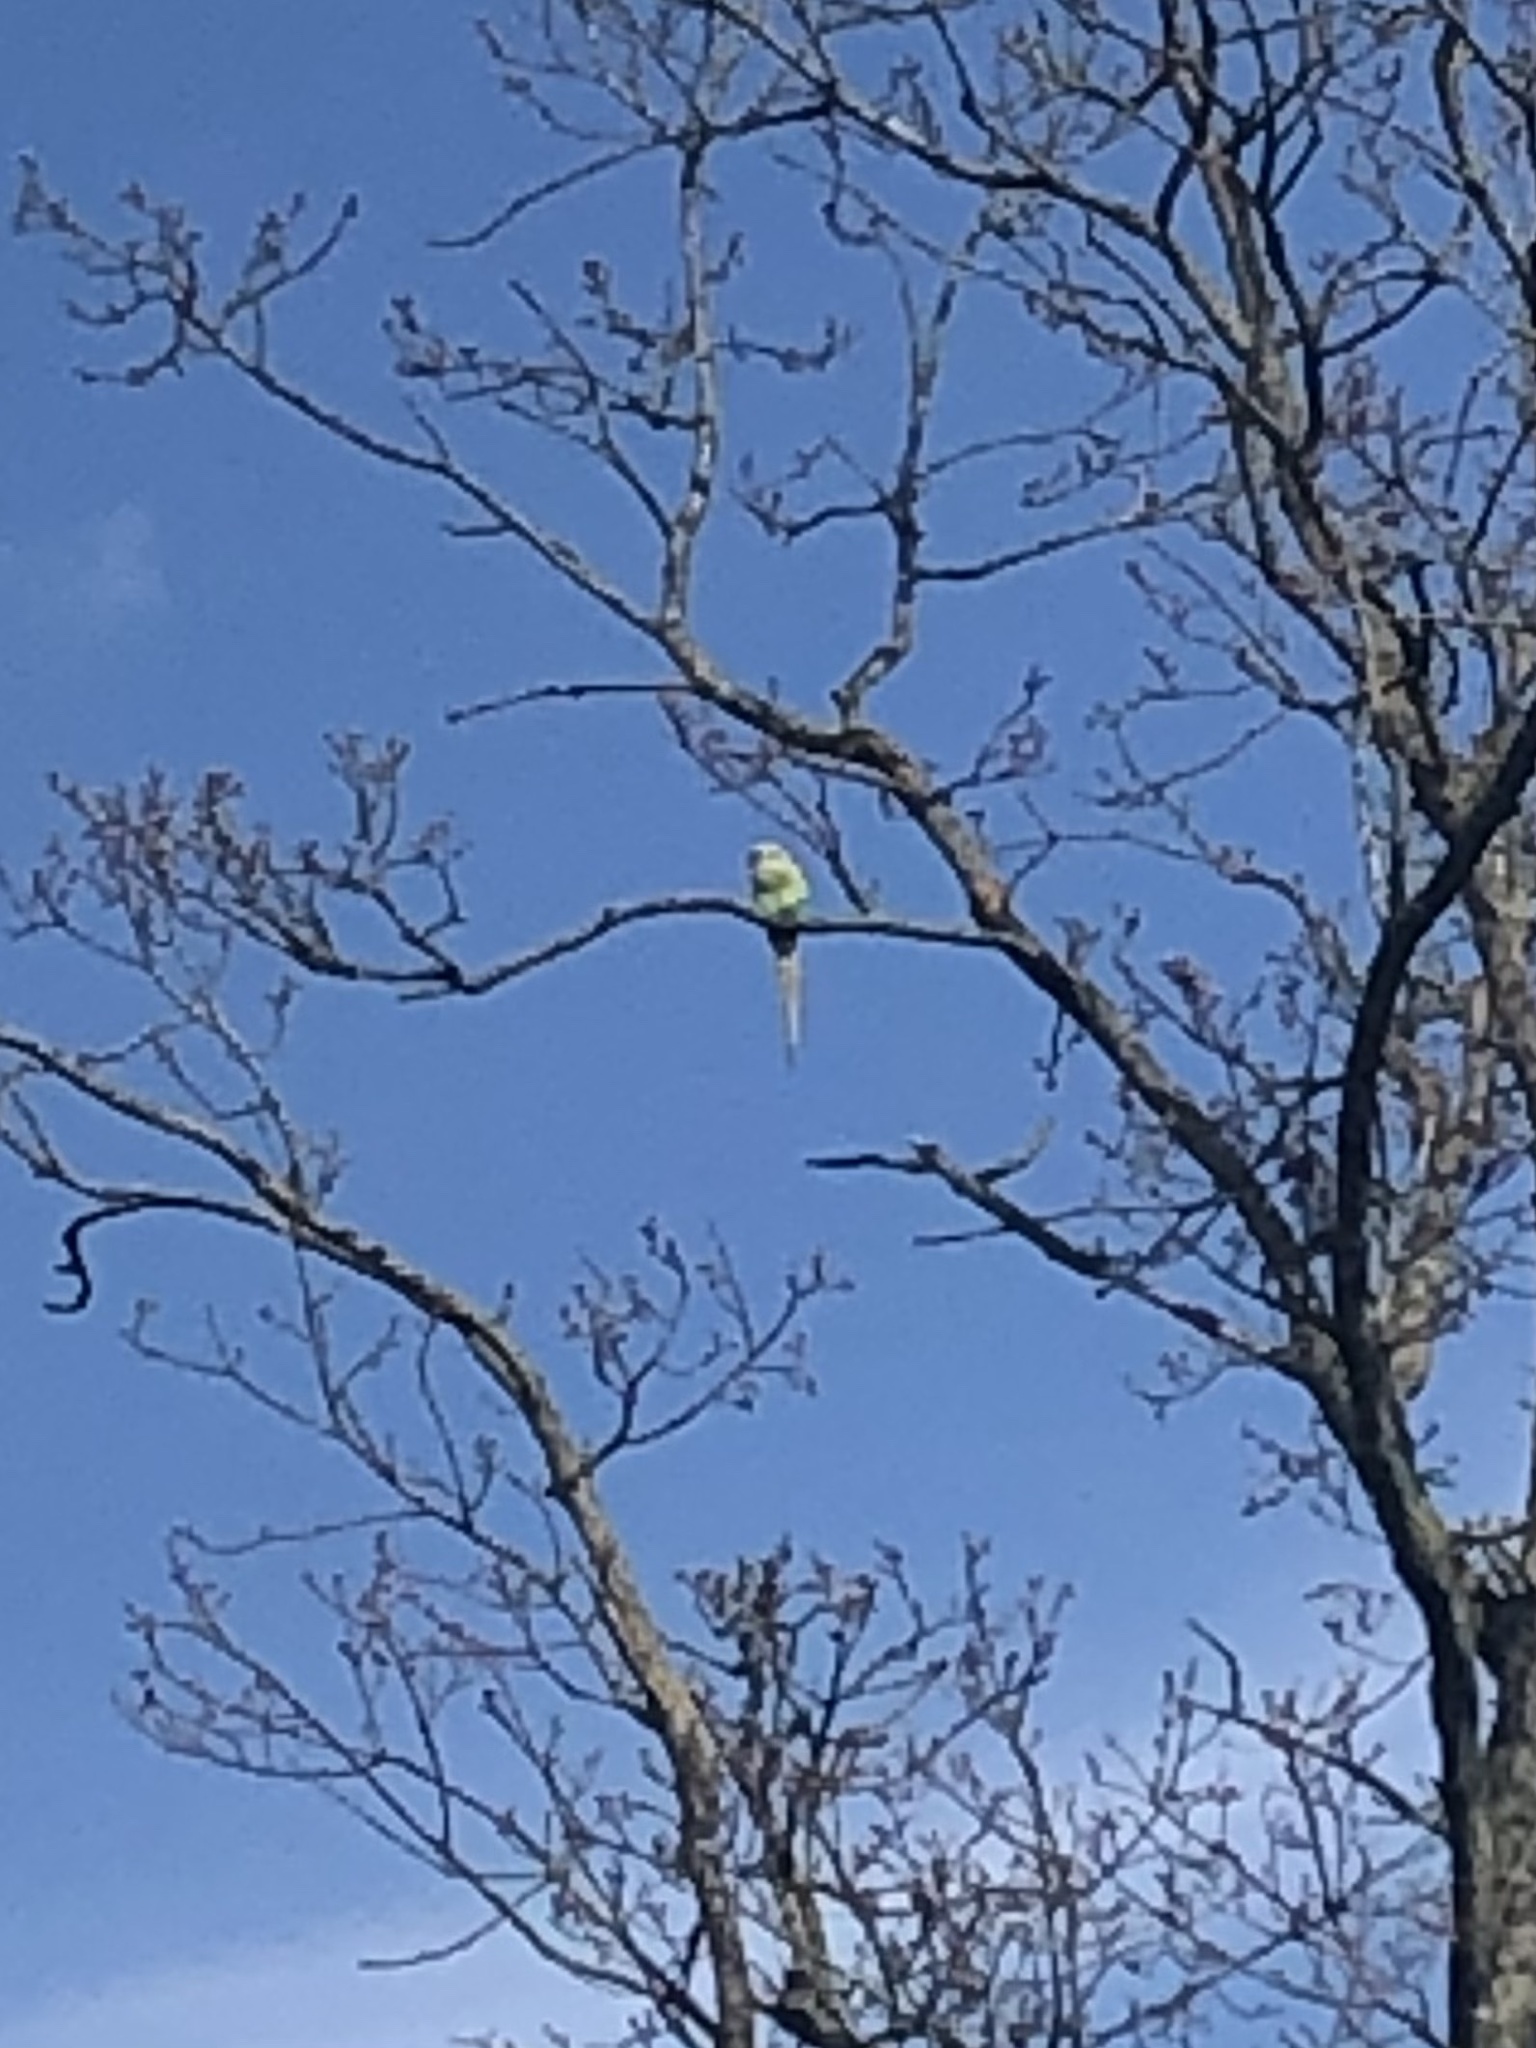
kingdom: Animalia
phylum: Chordata
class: Aves
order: Psittaciformes
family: Psittacidae
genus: Psittacula
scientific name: Psittacula krameri
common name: Rose-ringed parakeet
